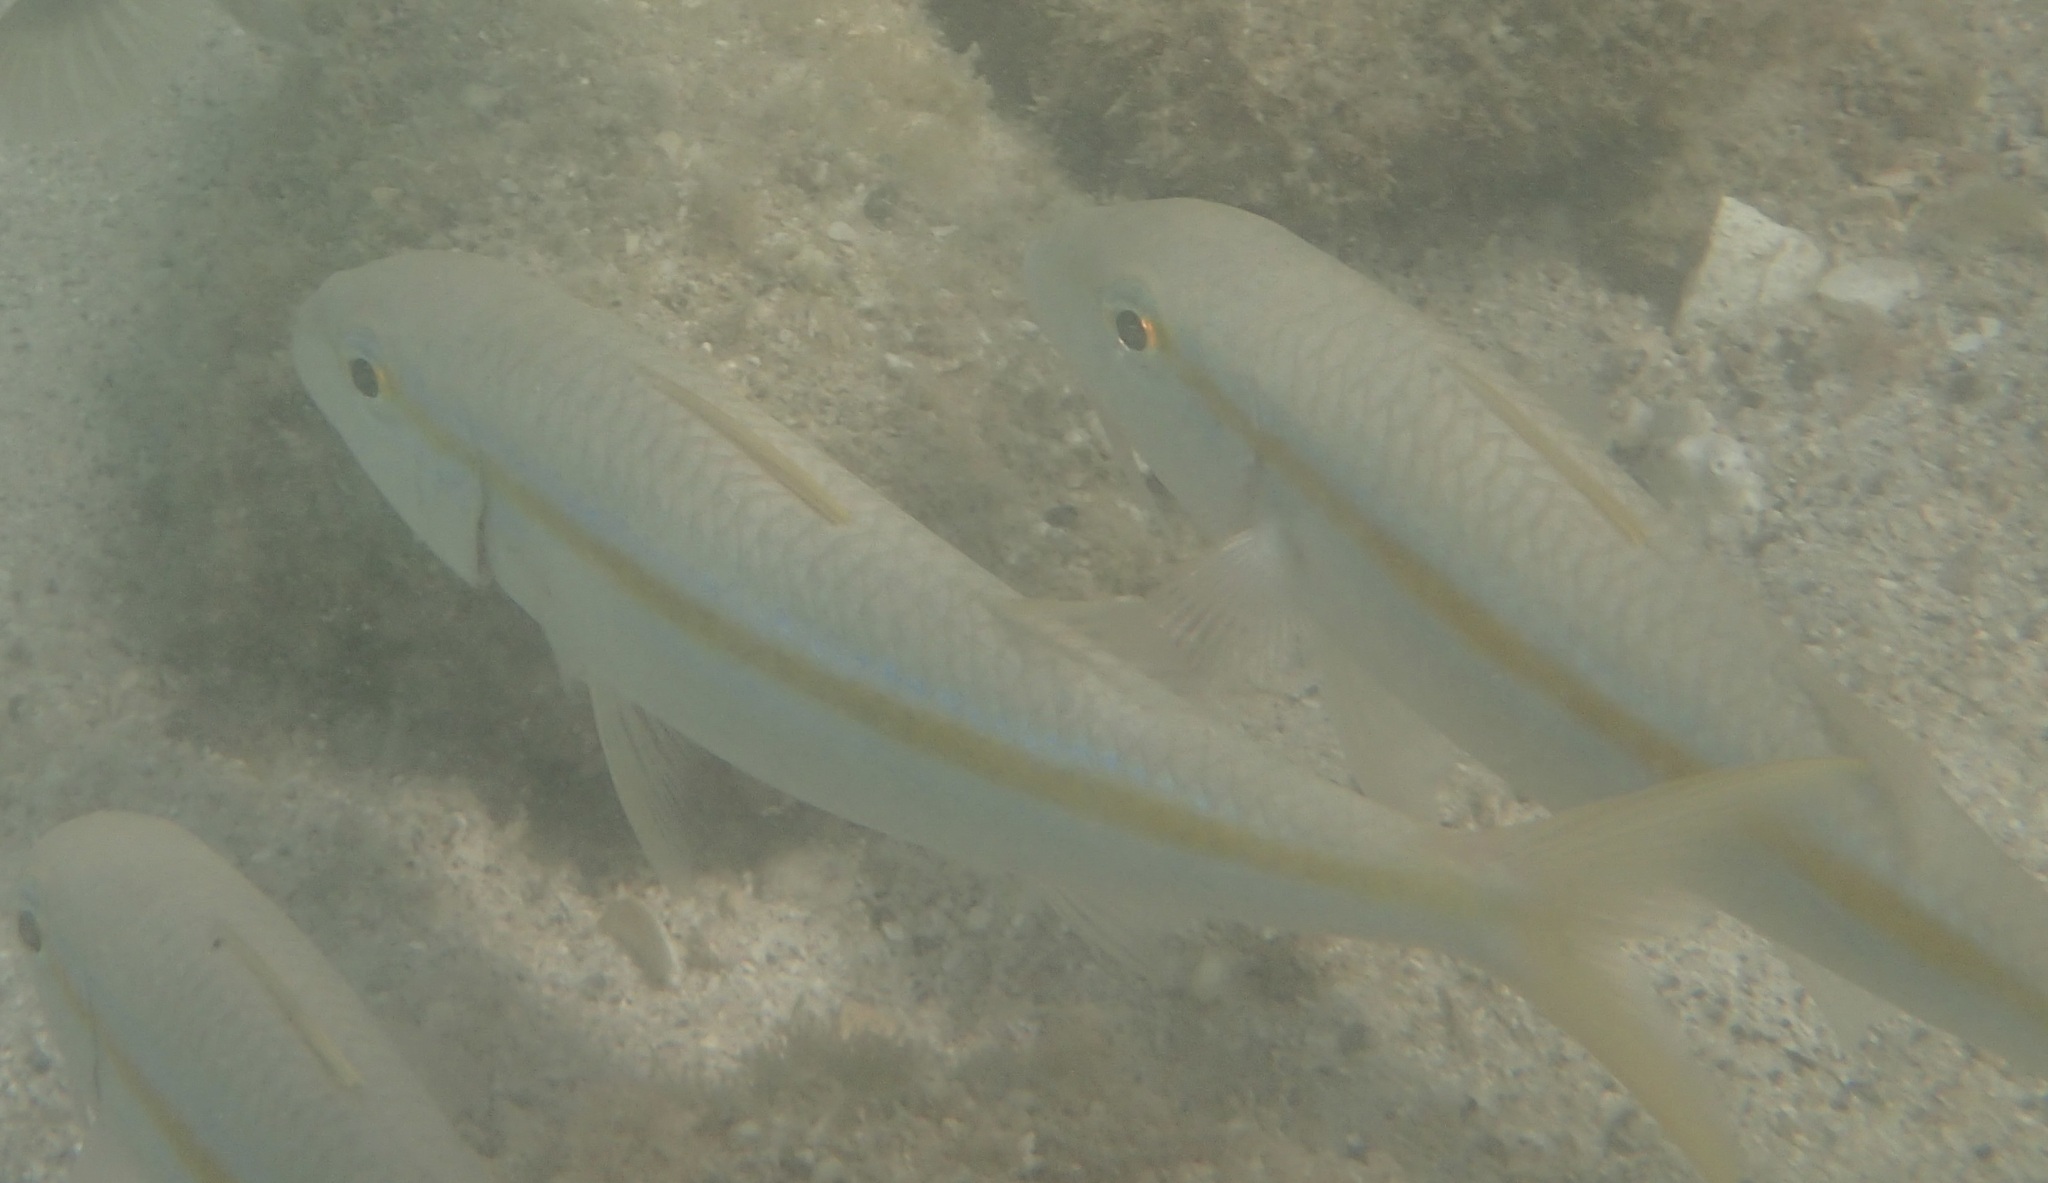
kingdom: Animalia
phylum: Chordata
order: Perciformes
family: Mullidae
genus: Mulloidichthys
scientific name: Mulloidichthys dentatus
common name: Mexican goatfish
